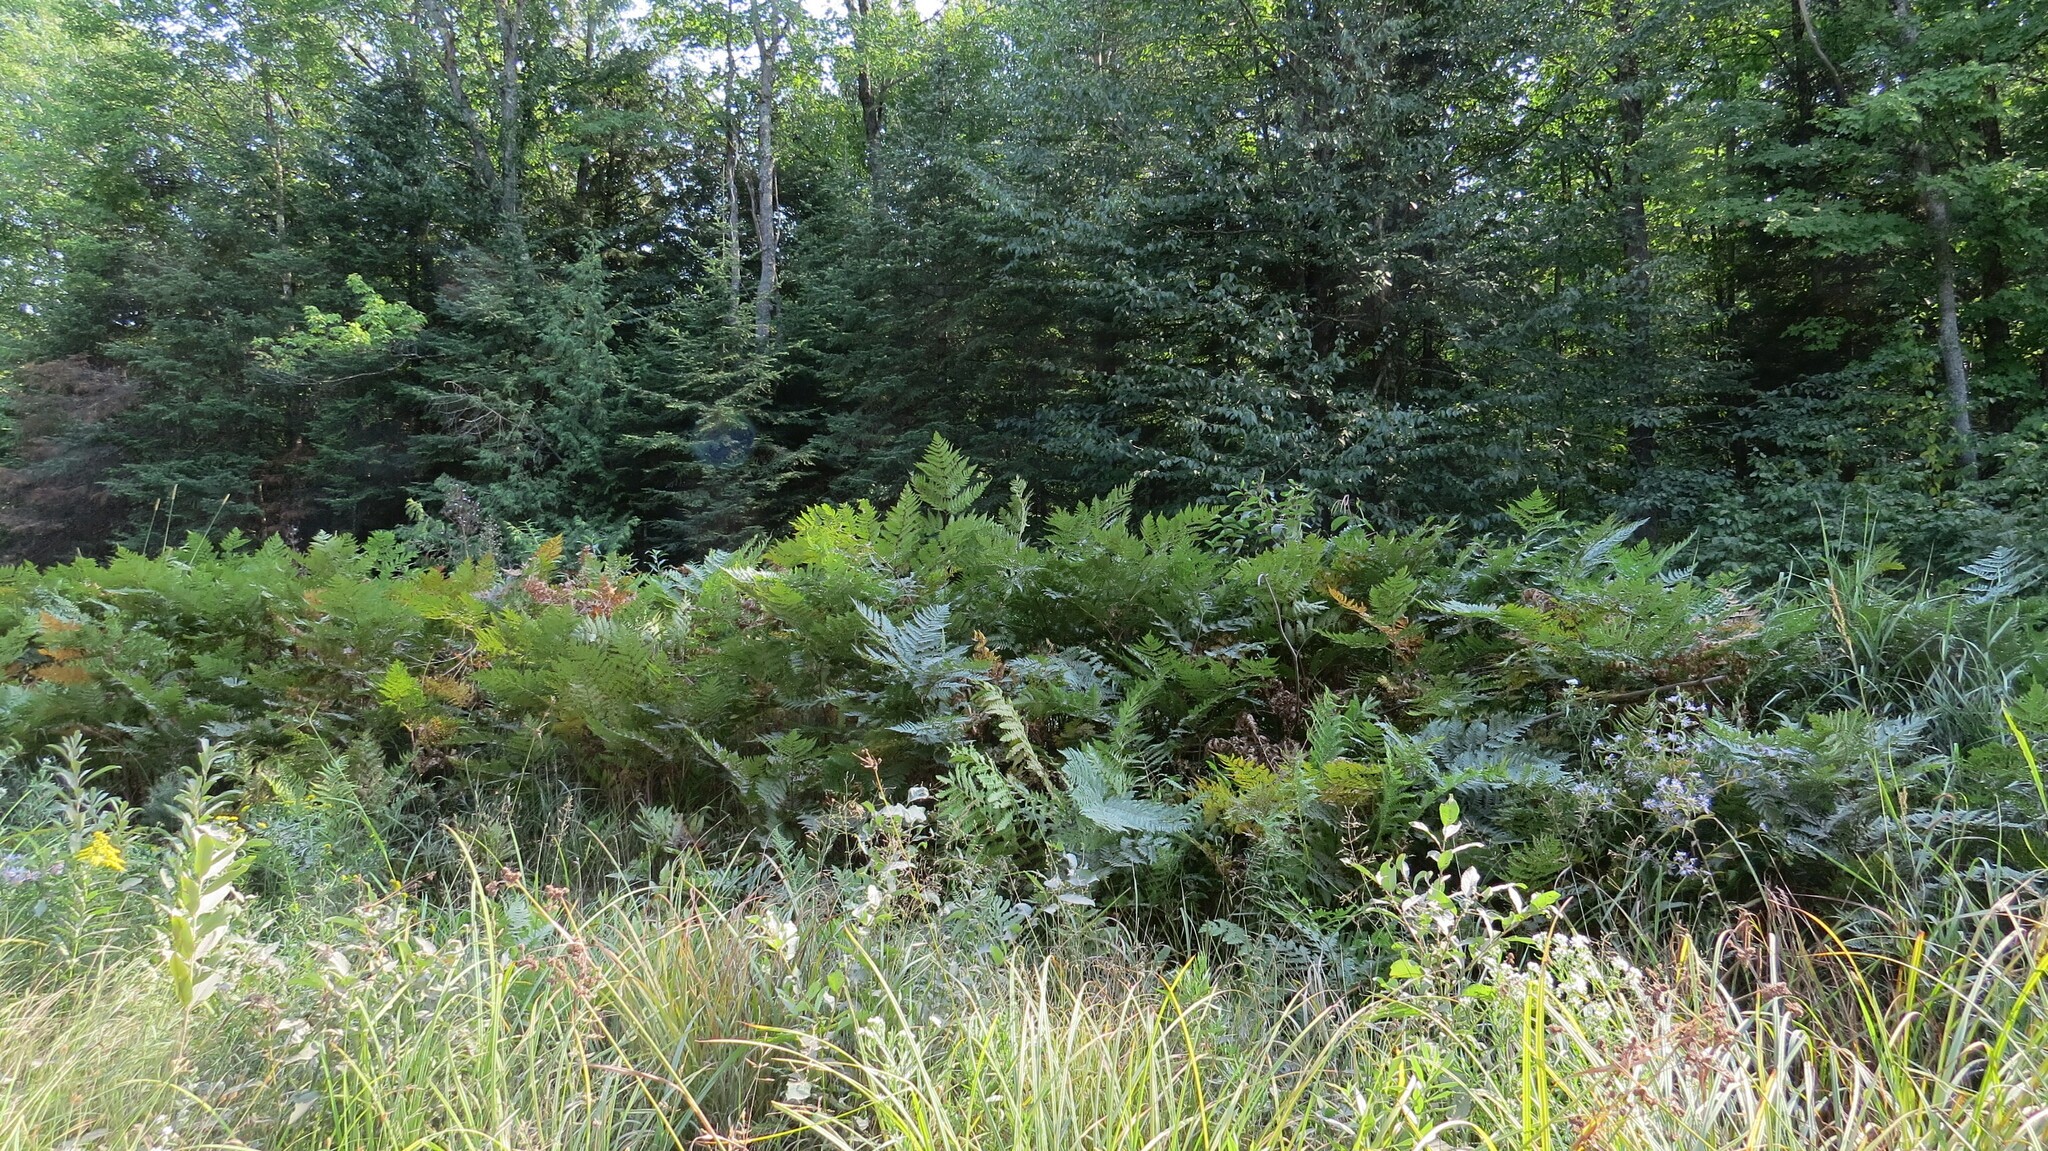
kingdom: Plantae
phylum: Tracheophyta
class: Polypodiopsida
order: Polypodiales
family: Dennstaedtiaceae
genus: Pteridium
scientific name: Pteridium aquilinum
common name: Bracken
